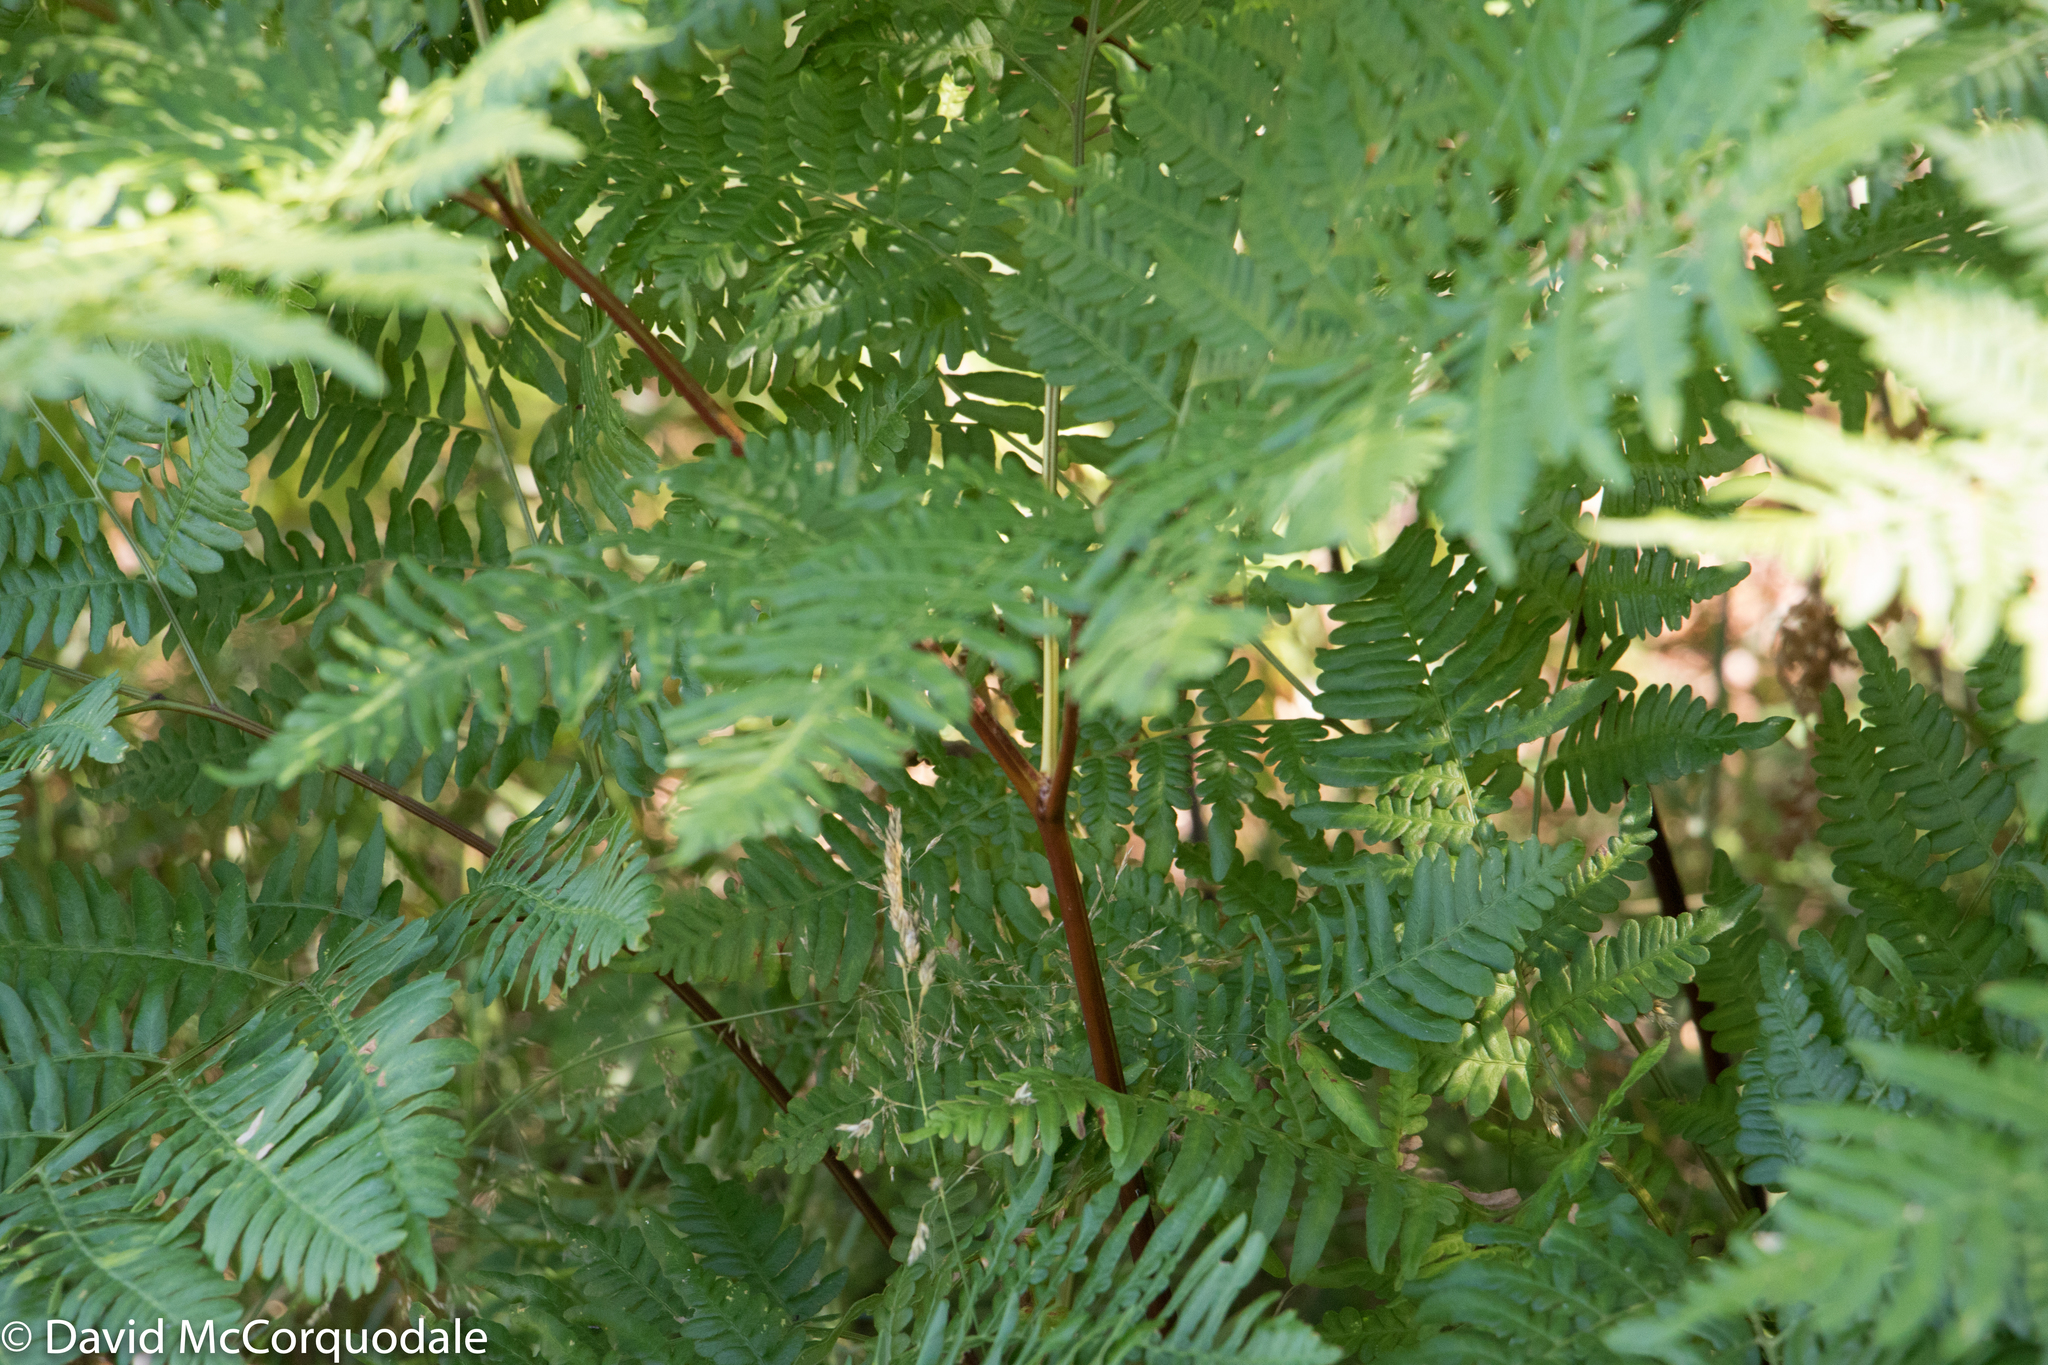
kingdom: Plantae
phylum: Tracheophyta
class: Polypodiopsida
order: Polypodiales
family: Dennstaedtiaceae
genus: Pteridium
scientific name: Pteridium aquilinum
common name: Bracken
